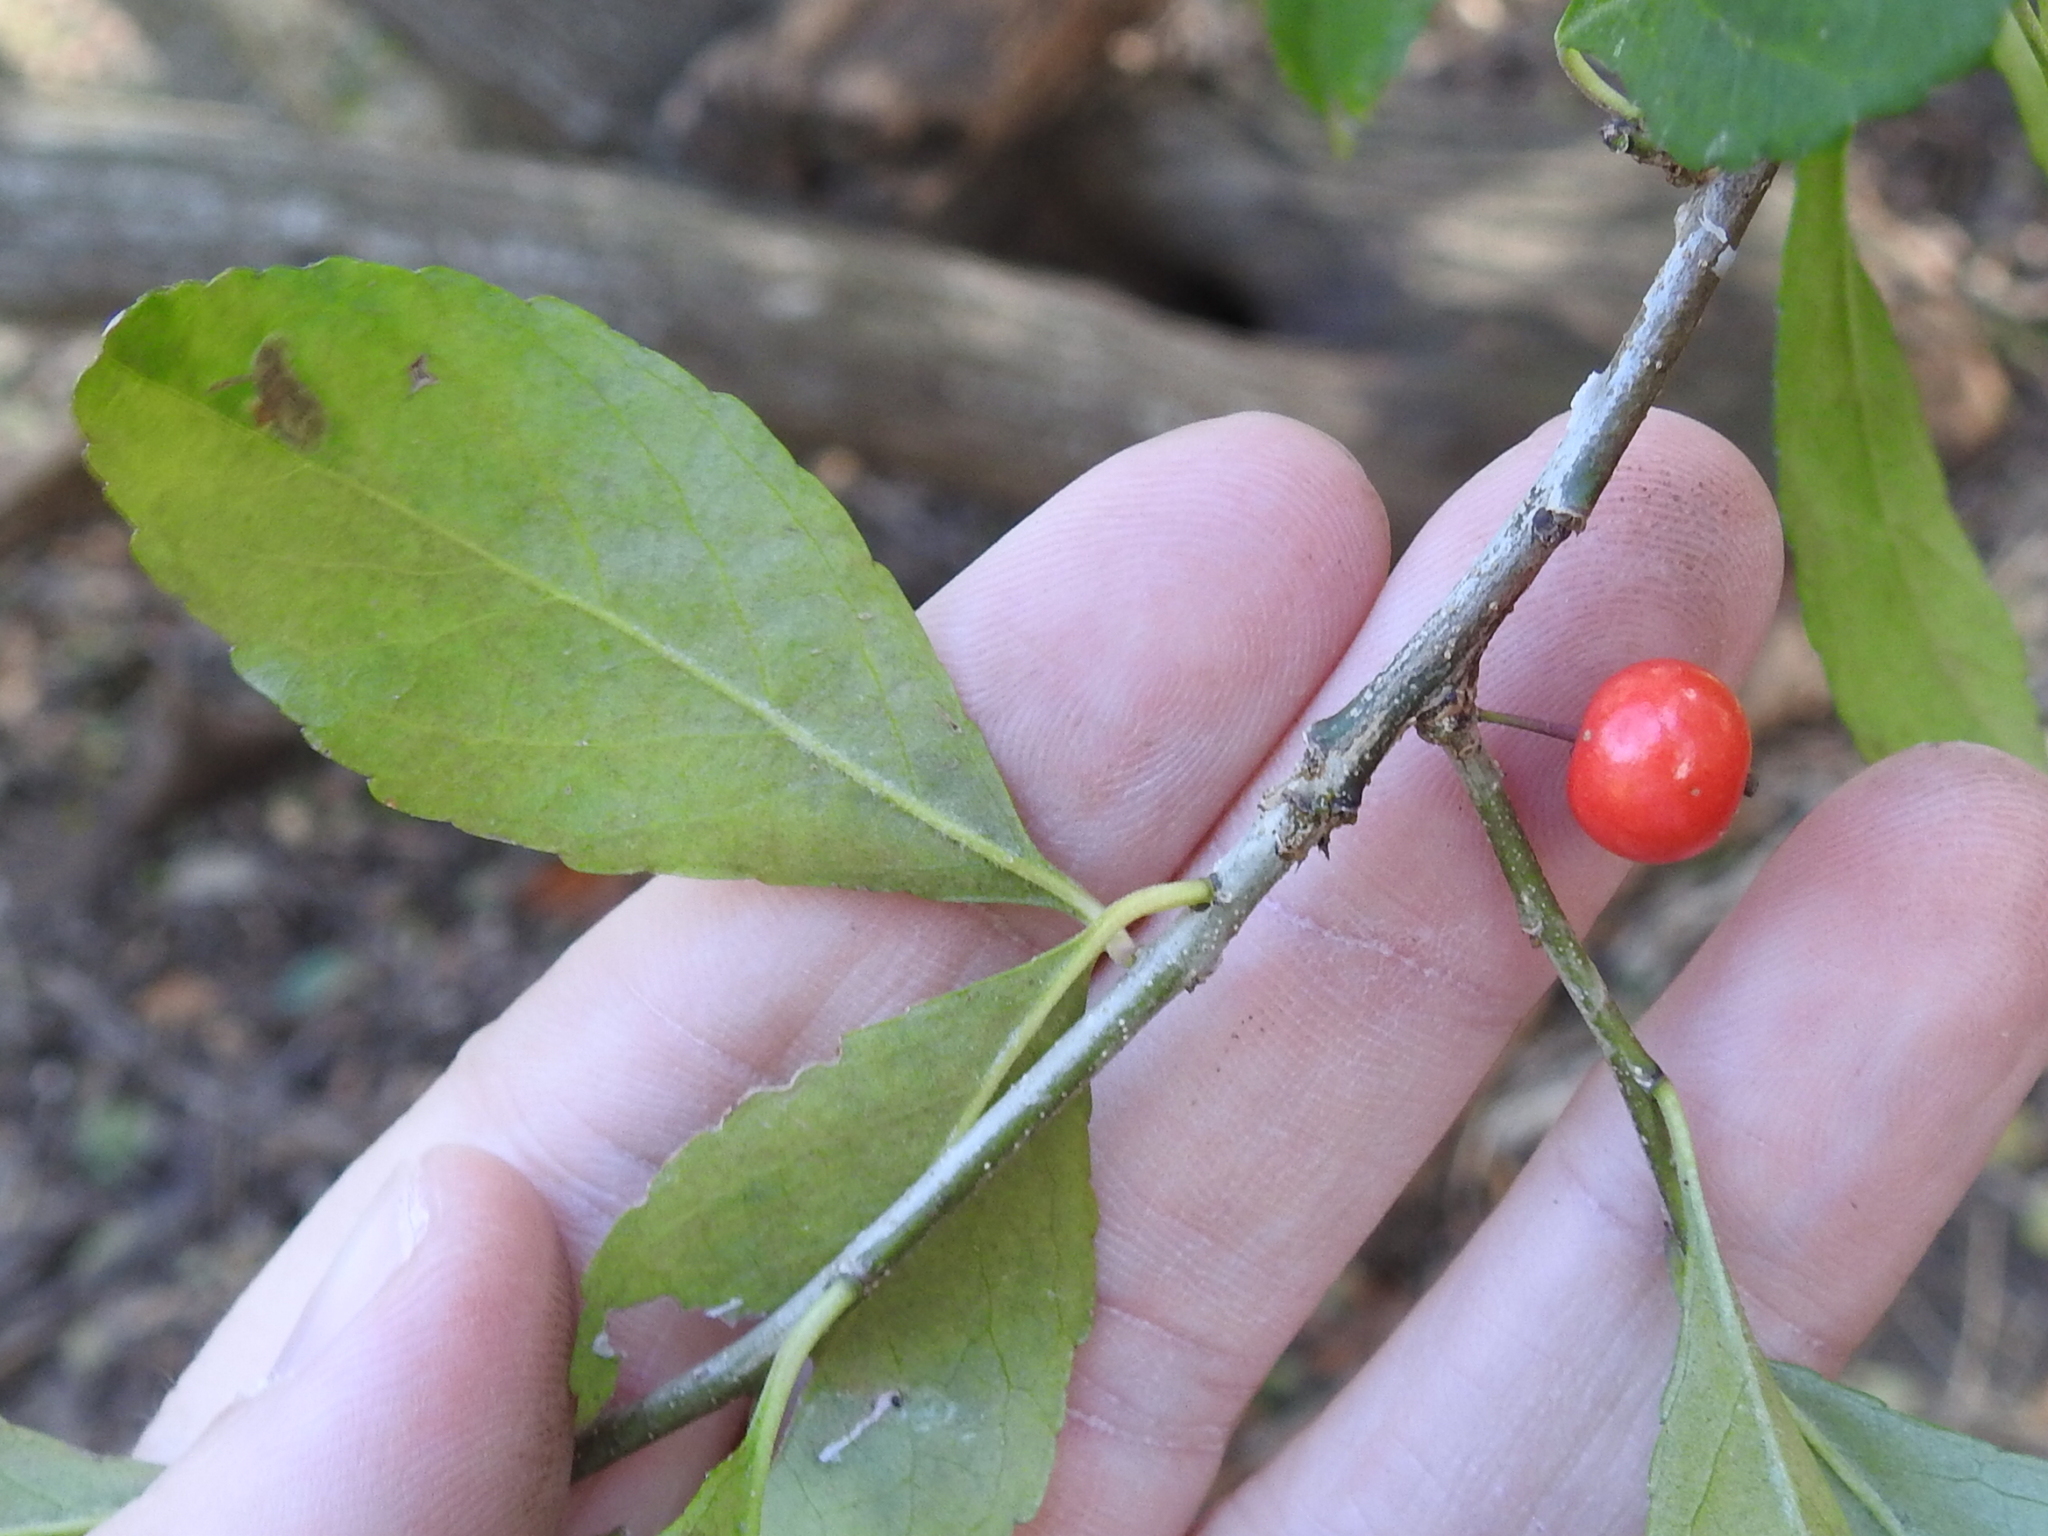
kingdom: Plantae
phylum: Tracheophyta
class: Magnoliopsida
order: Aquifoliales
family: Aquifoliaceae
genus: Ilex
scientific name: Ilex decidua
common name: Possum-haw
